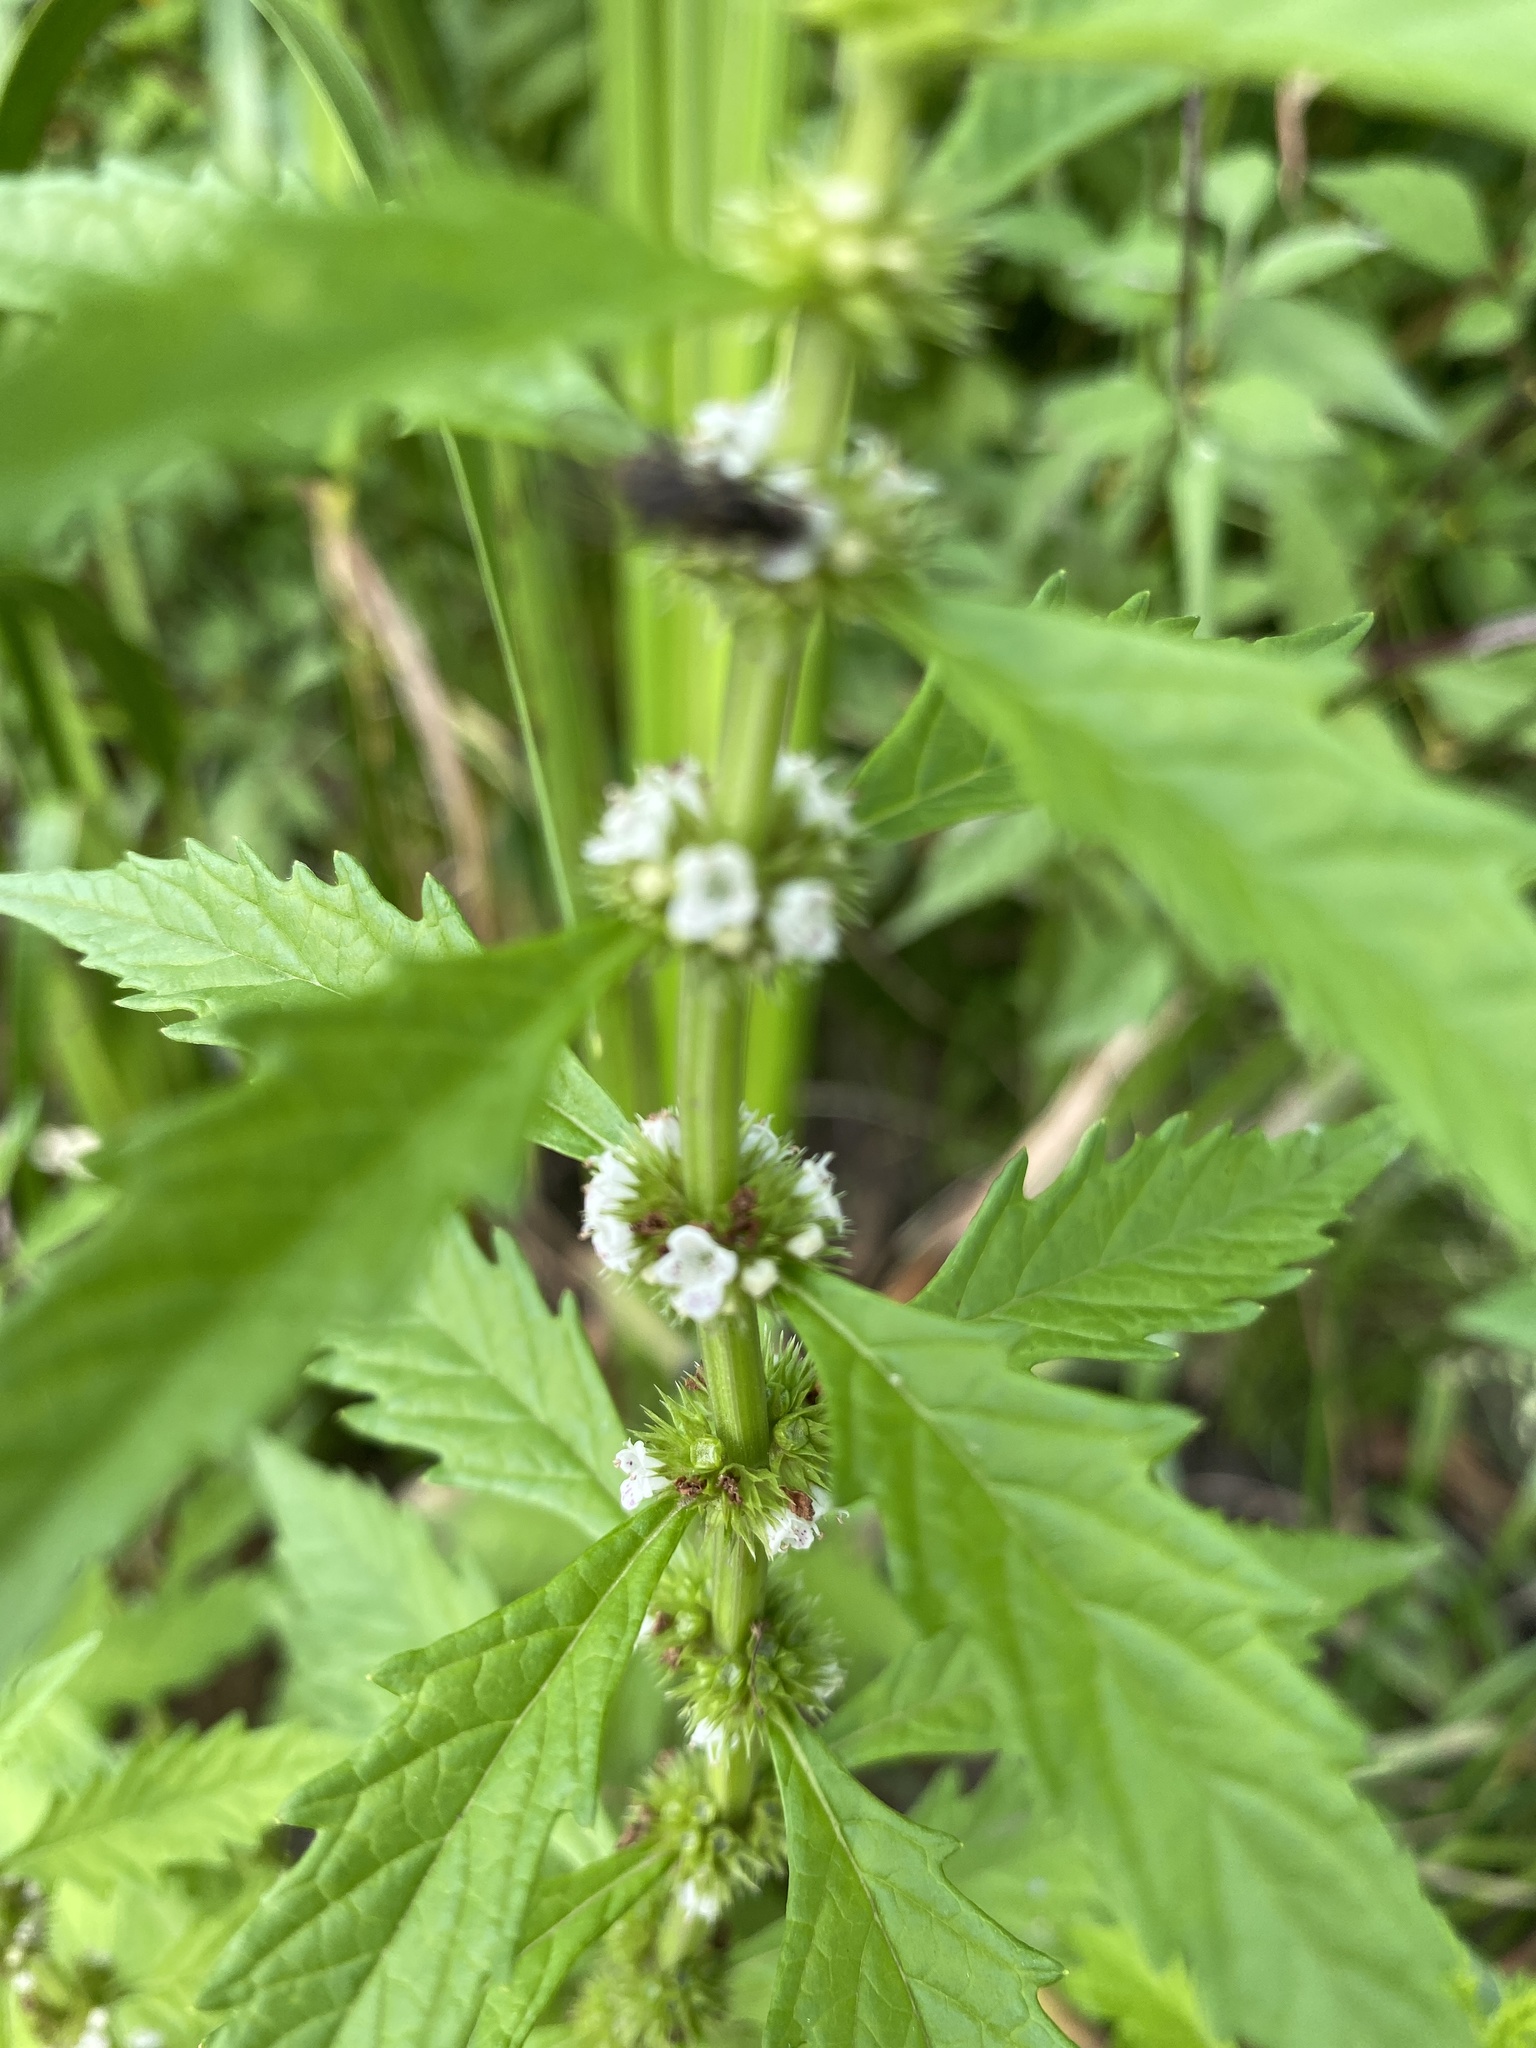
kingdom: Plantae
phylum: Tracheophyta
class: Magnoliopsida
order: Lamiales
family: Lamiaceae
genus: Lycopus
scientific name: Lycopus europaeus
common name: European bugleweed
